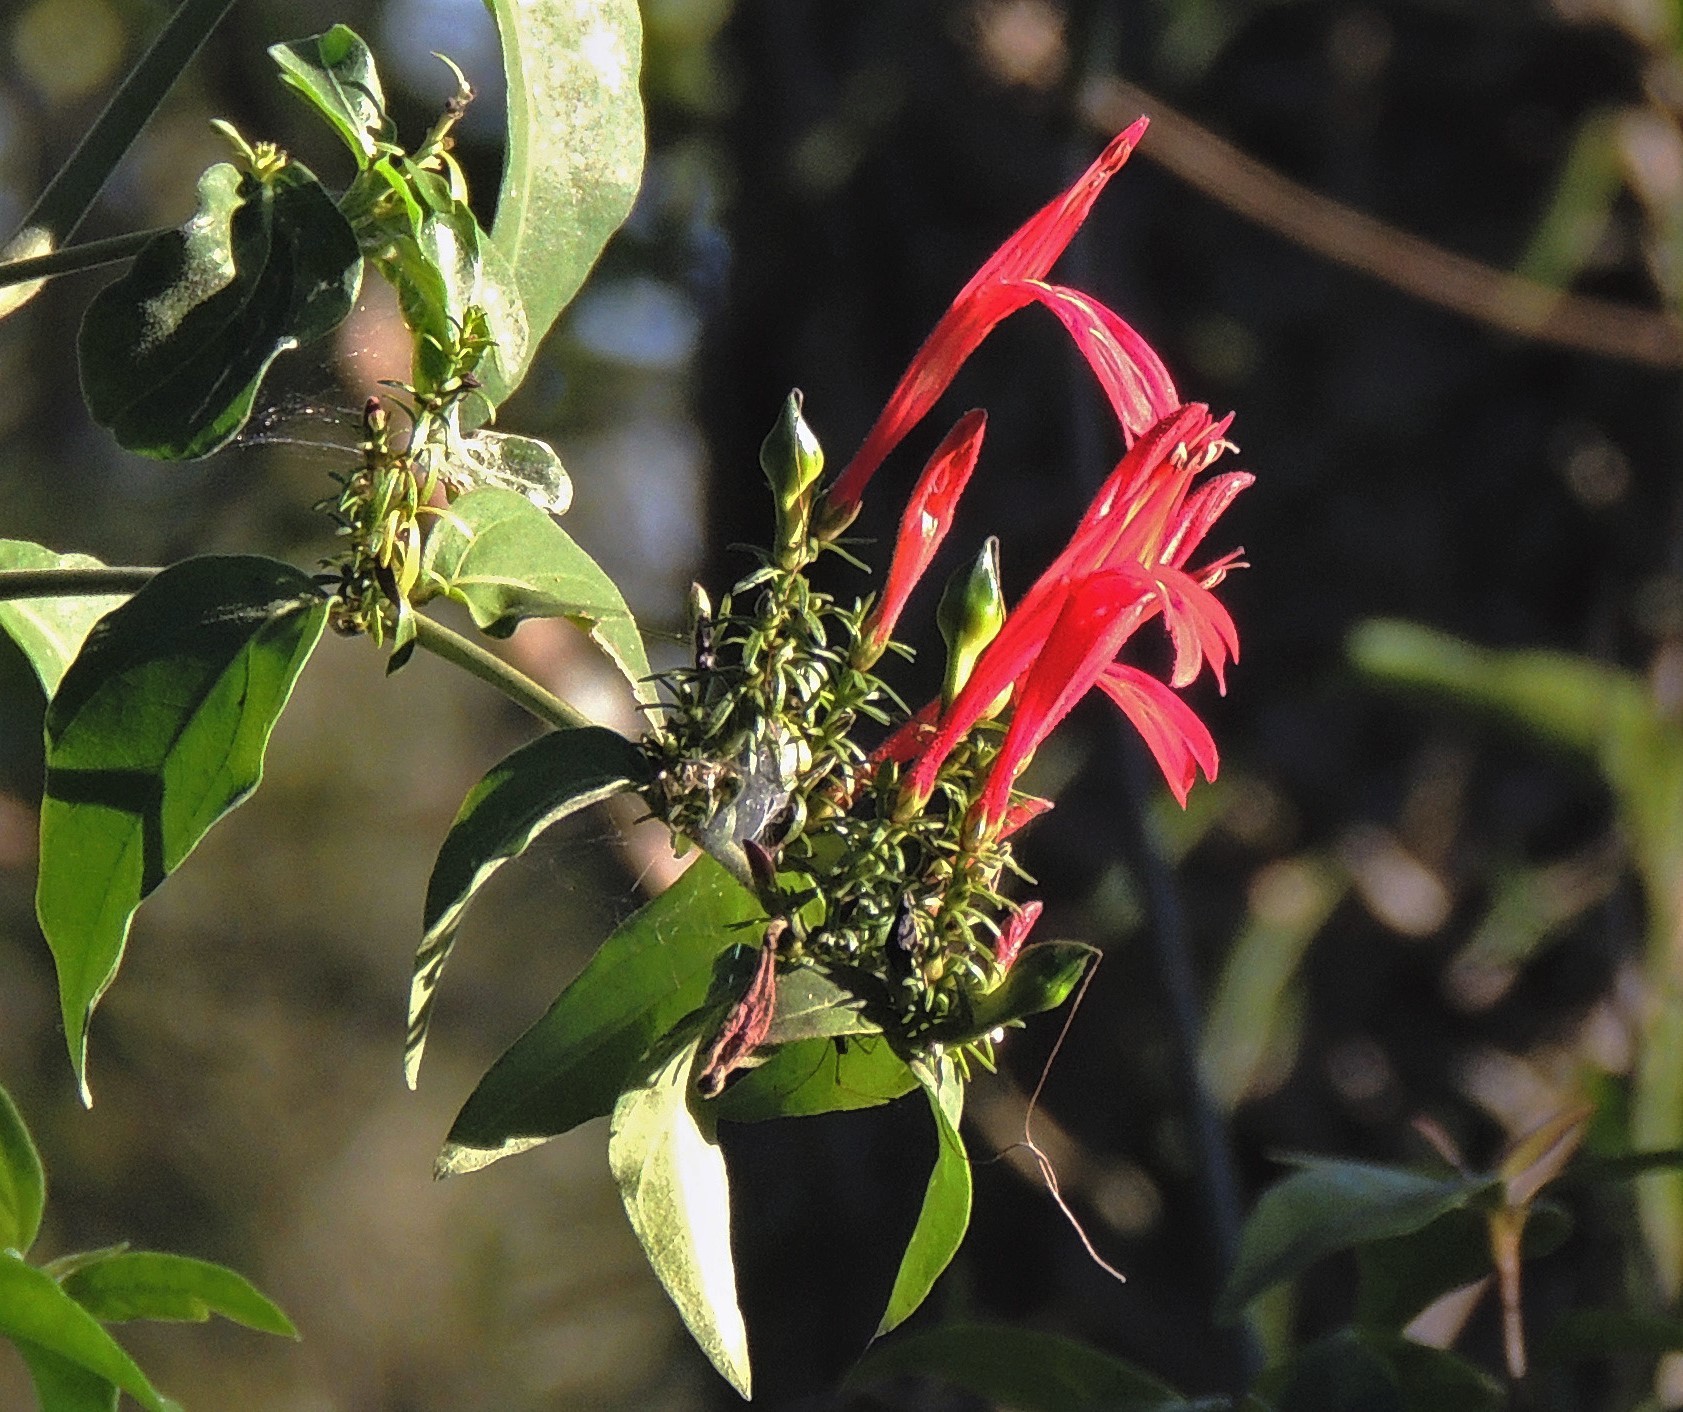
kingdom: Plantae
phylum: Tracheophyta
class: Magnoliopsida
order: Lamiales
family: Acanthaceae
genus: Justicia
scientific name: Justicia brasiliana
